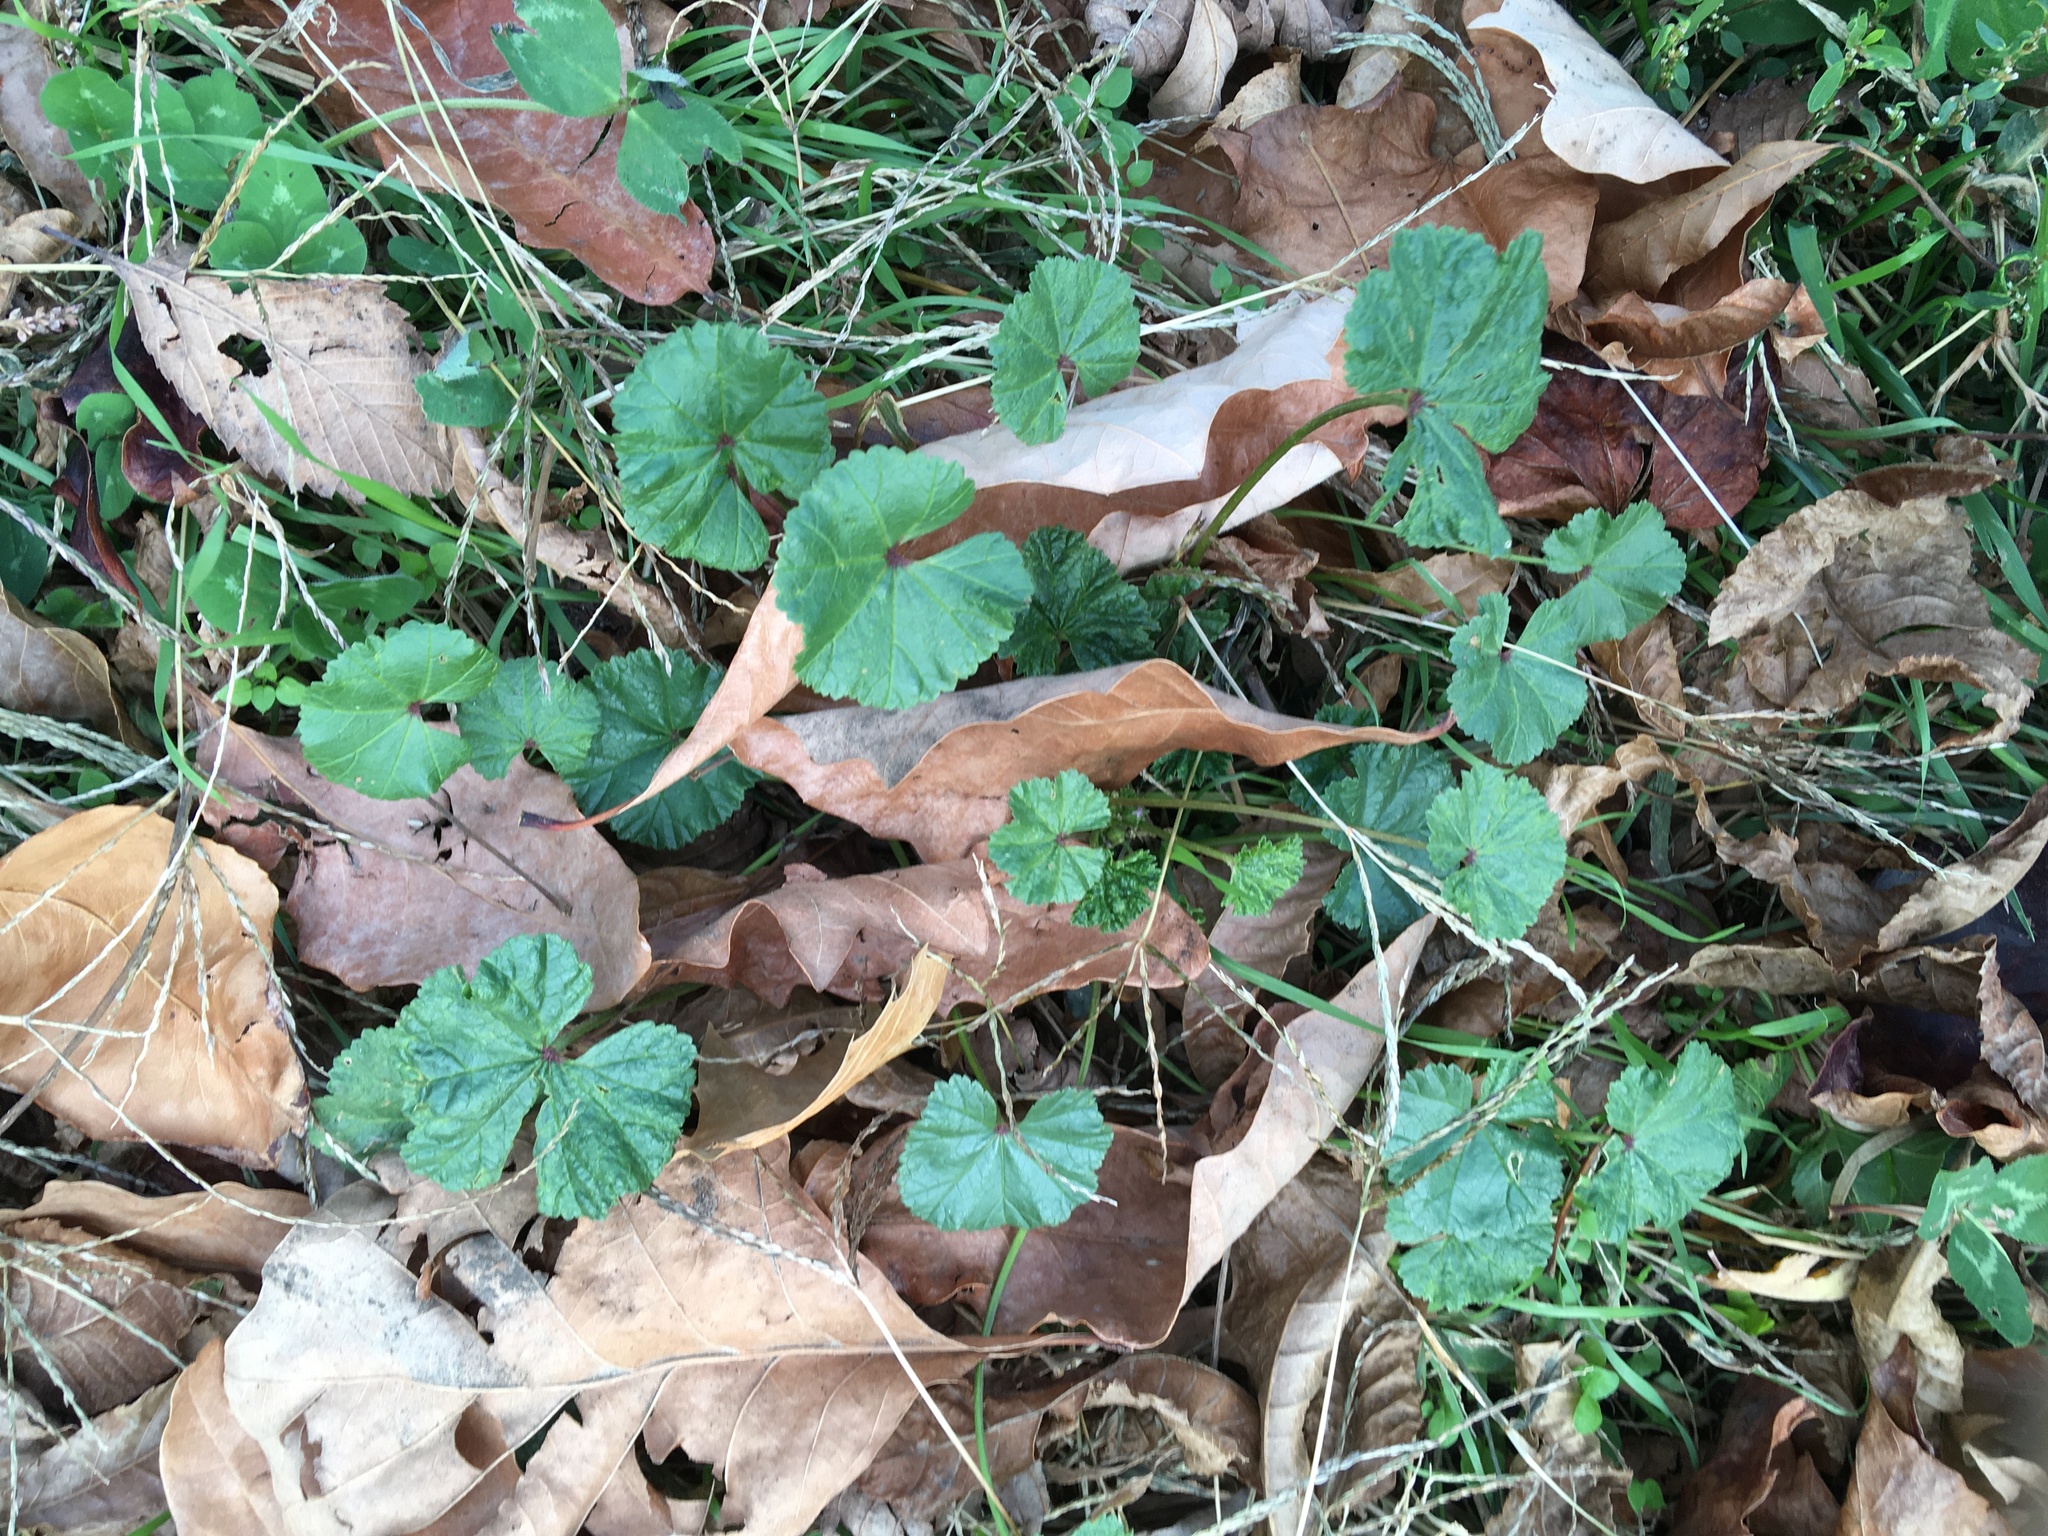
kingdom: Plantae
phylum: Tracheophyta
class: Magnoliopsida
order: Malvales
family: Malvaceae
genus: Malva
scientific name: Malva neglecta
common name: Common mallow
